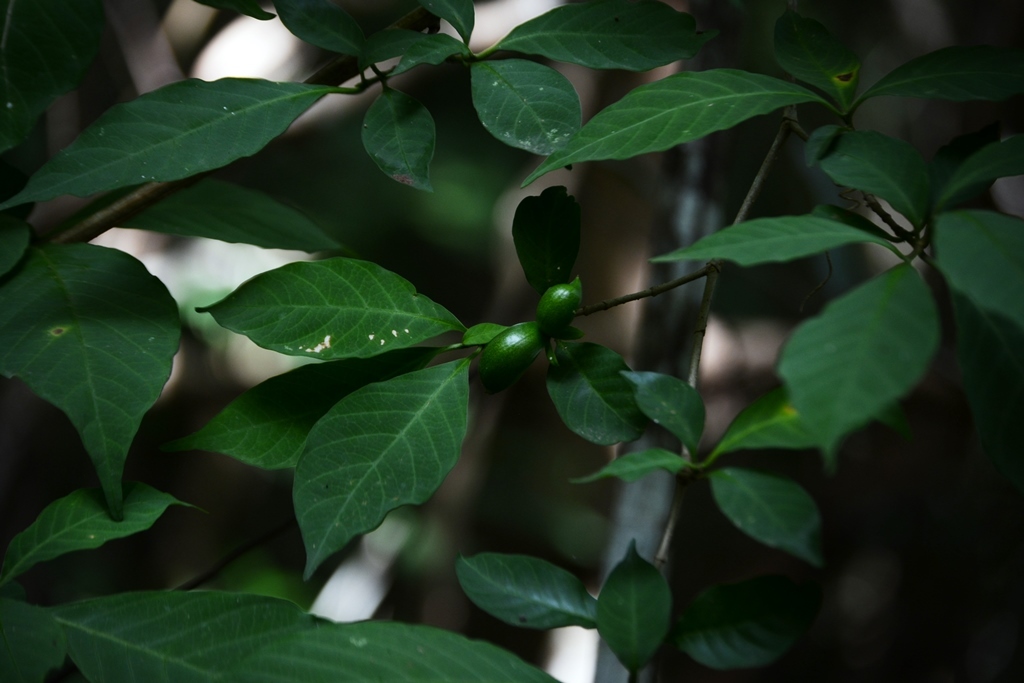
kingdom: Plantae
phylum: Tracheophyta
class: Magnoliopsida
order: Gentianales
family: Apocynaceae
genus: Tabernaemontana
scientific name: Tabernaemontana hannae
